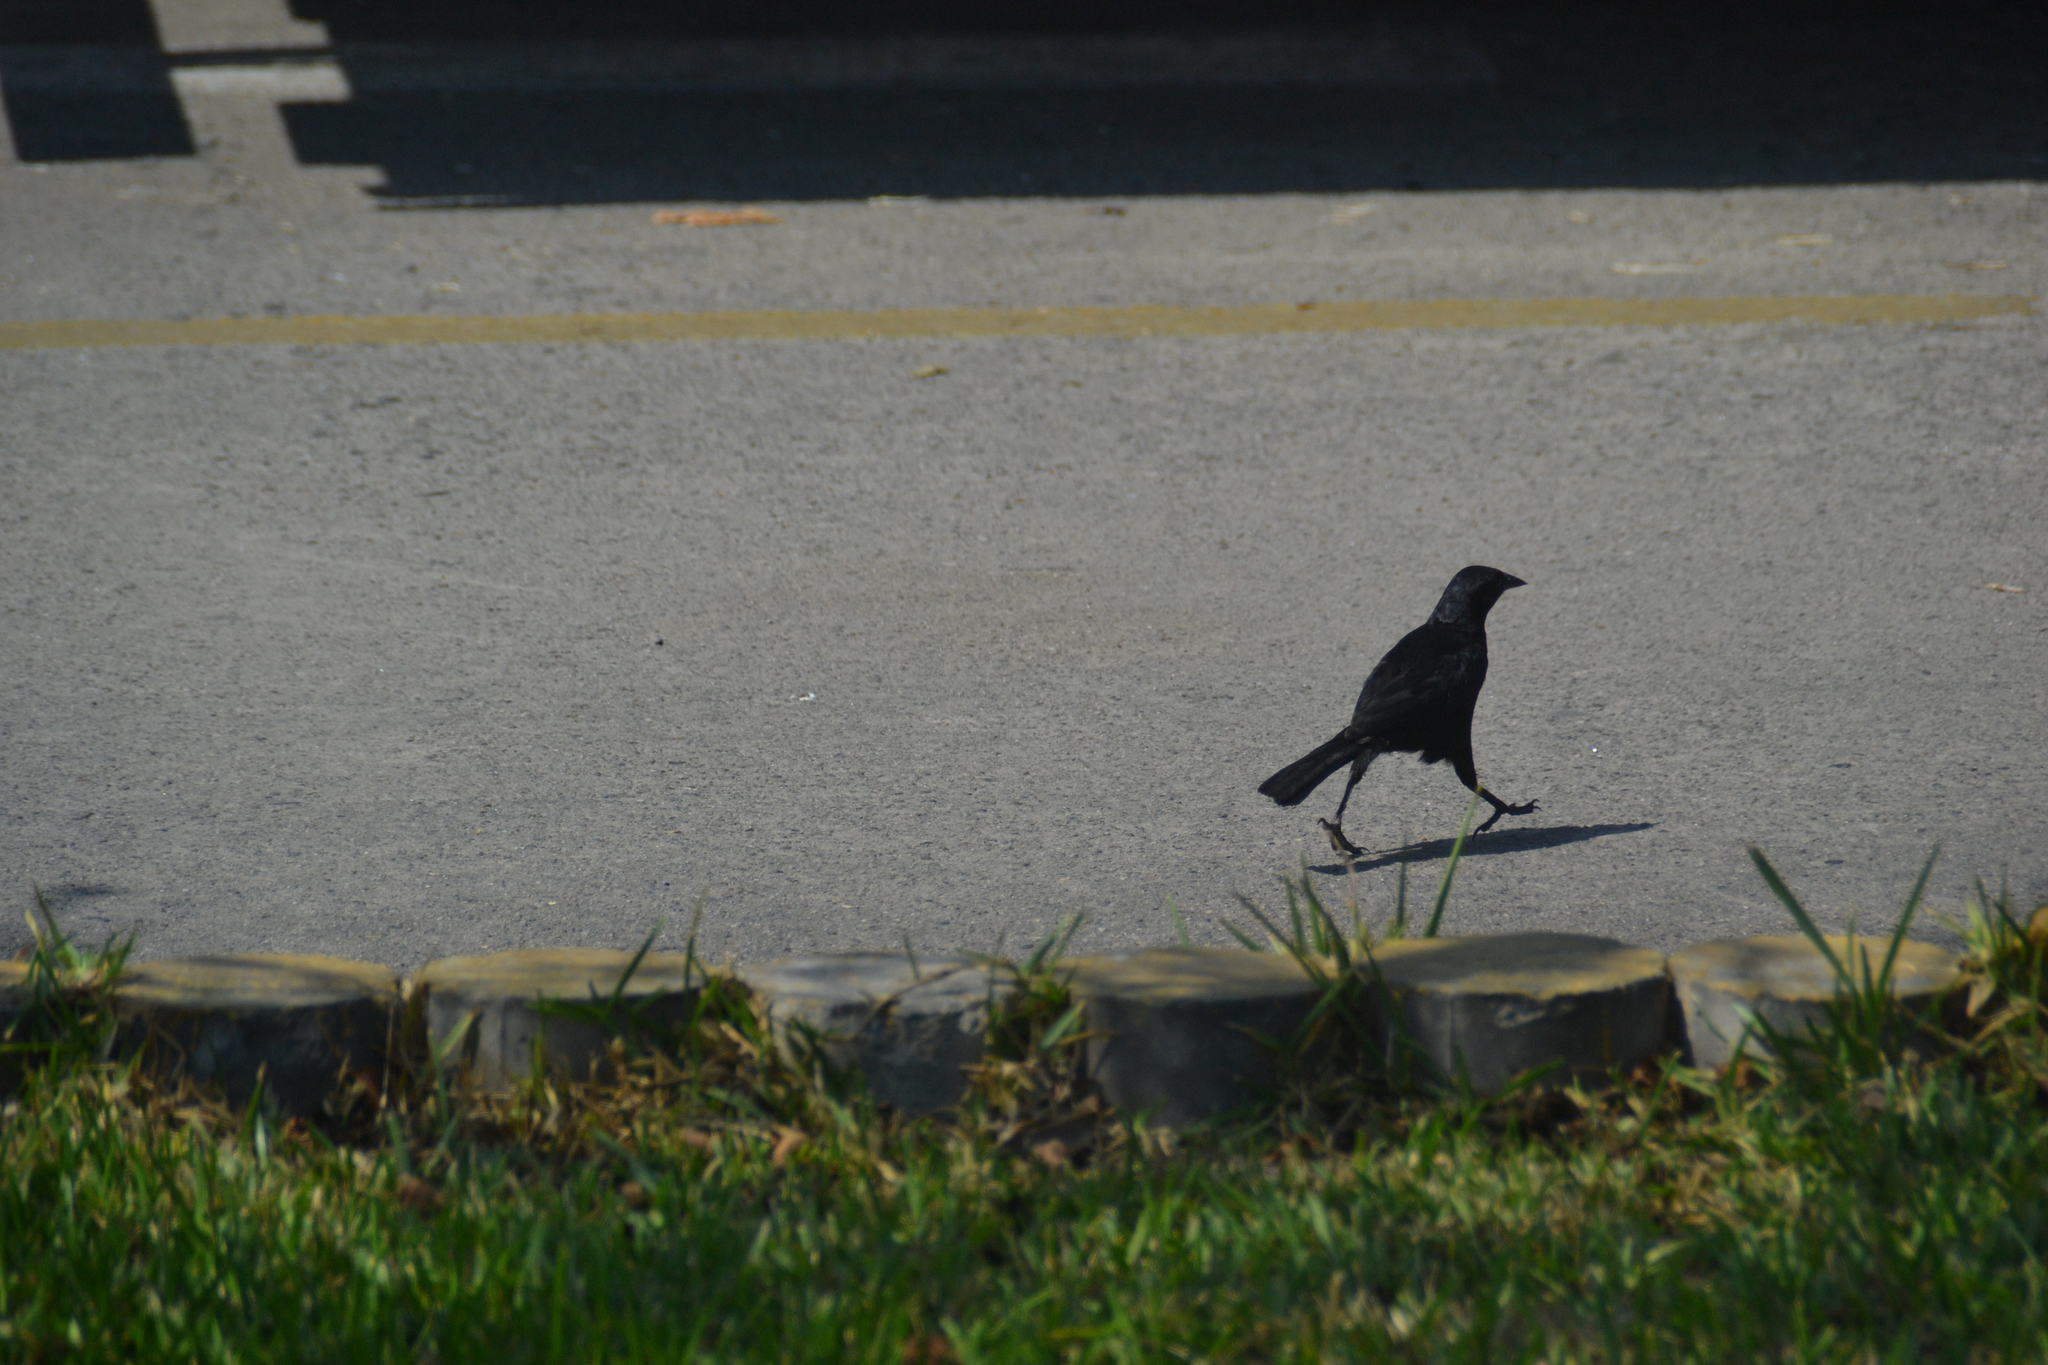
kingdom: Animalia
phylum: Chordata
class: Aves
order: Passeriformes
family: Icteridae
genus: Dives
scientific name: Dives warczewiczi
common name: Scrub blackbird
